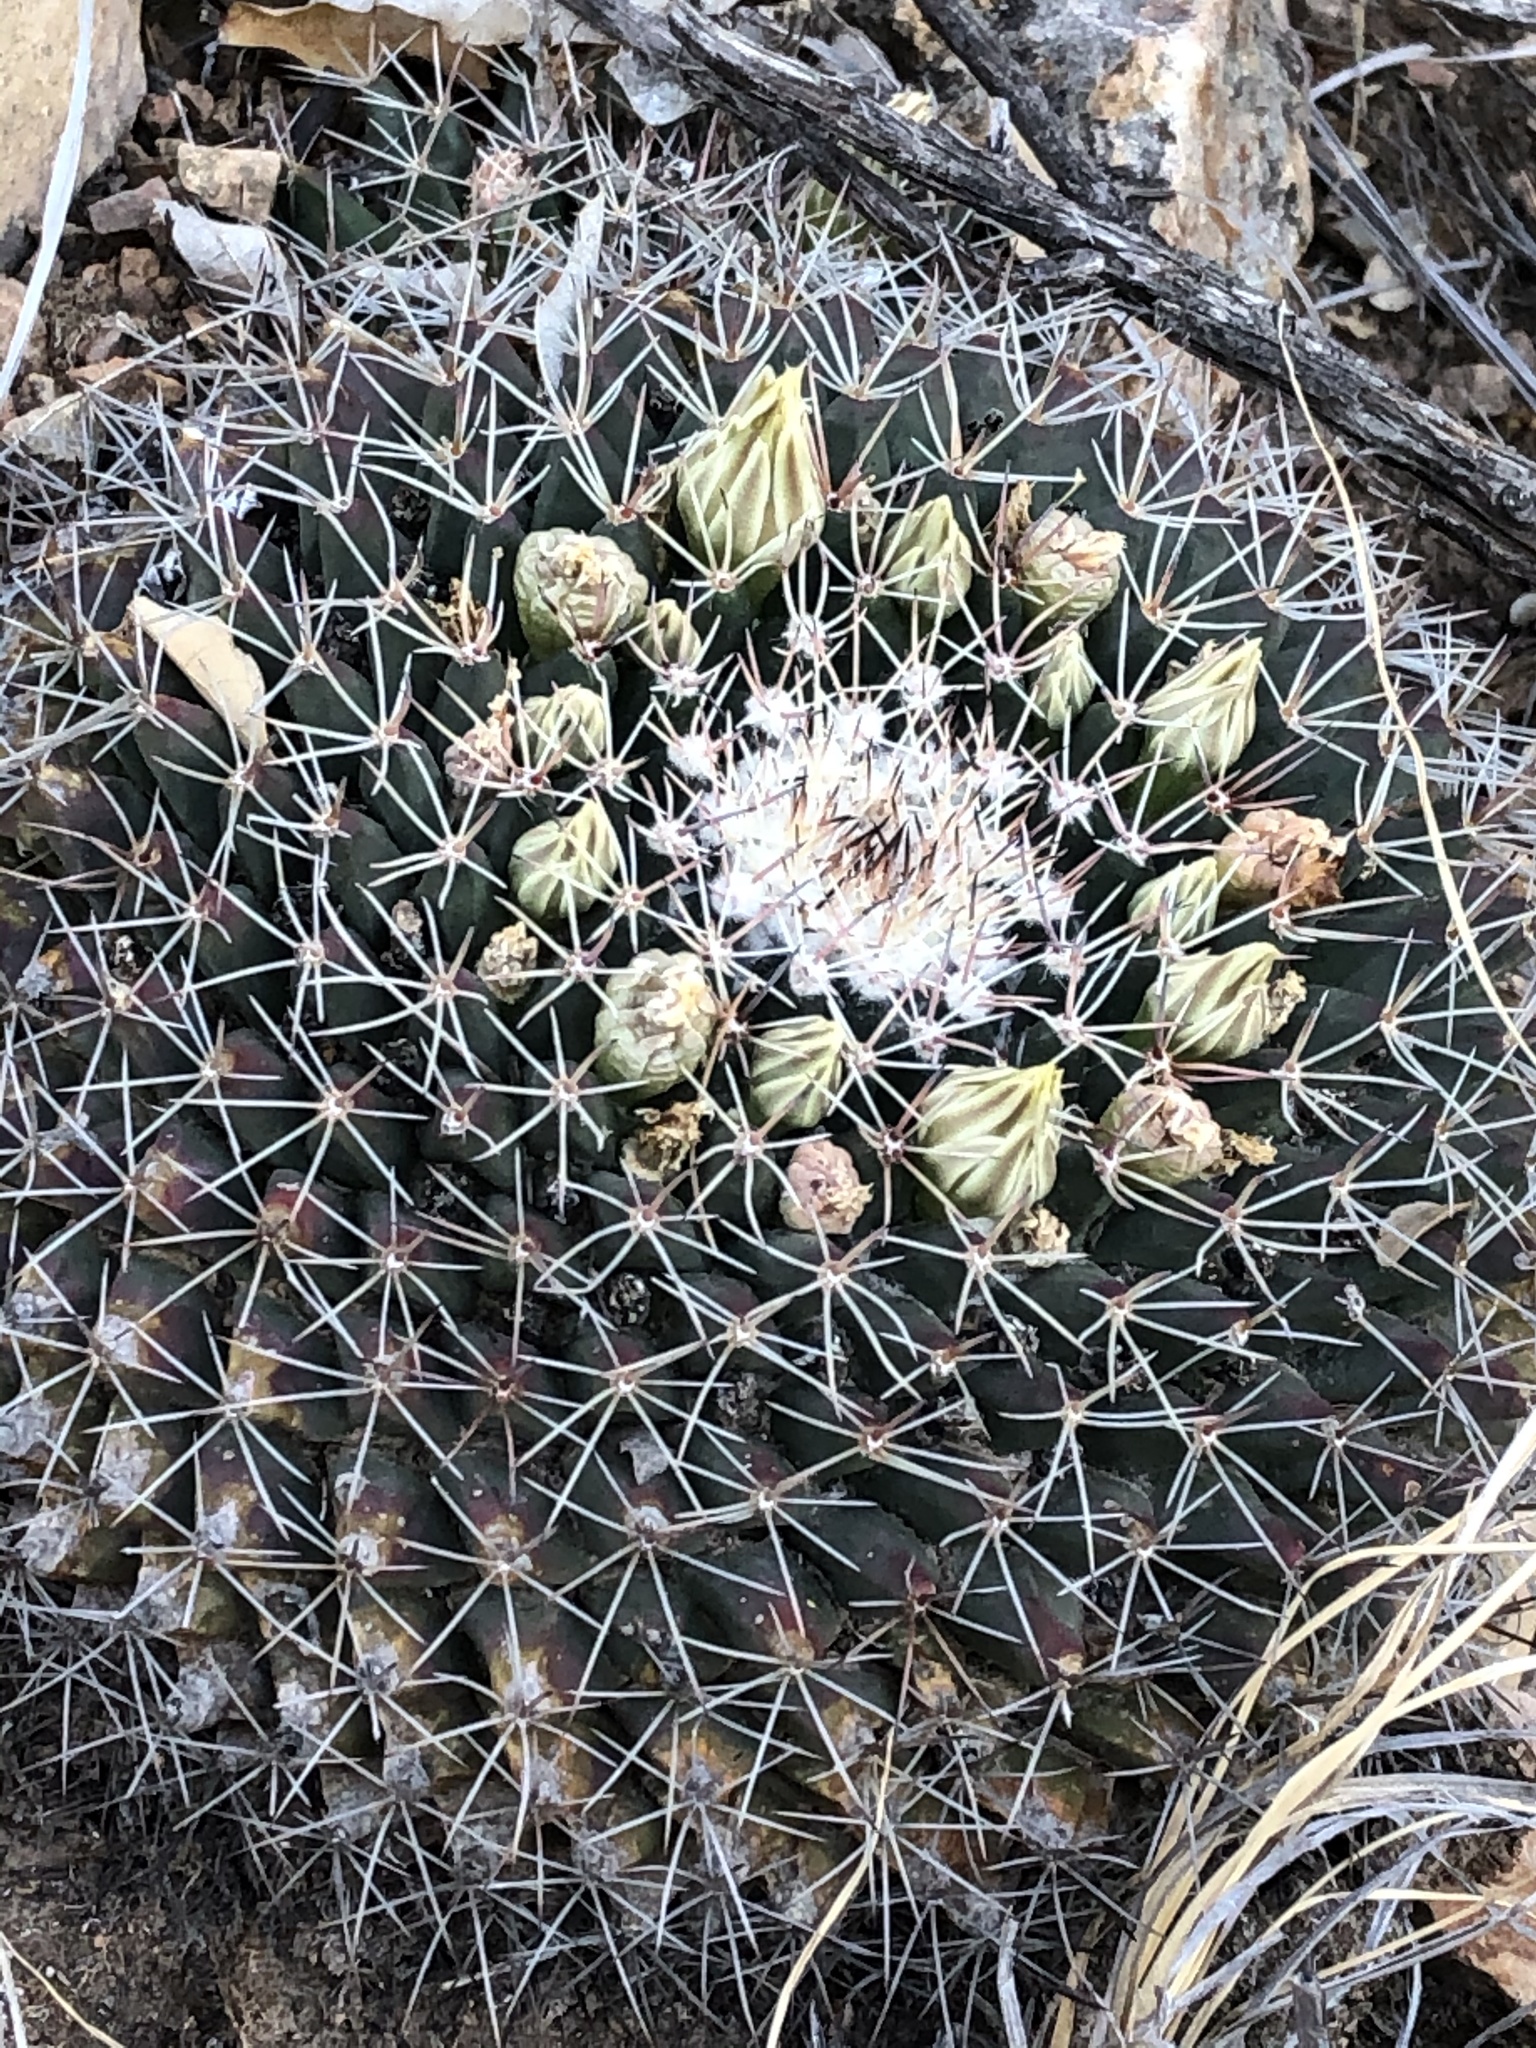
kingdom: Plantae
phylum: Tracheophyta
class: Magnoliopsida
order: Caryophyllales
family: Cactaceae
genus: Mammillaria
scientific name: Mammillaria heyderi
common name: Little nipple cactus
